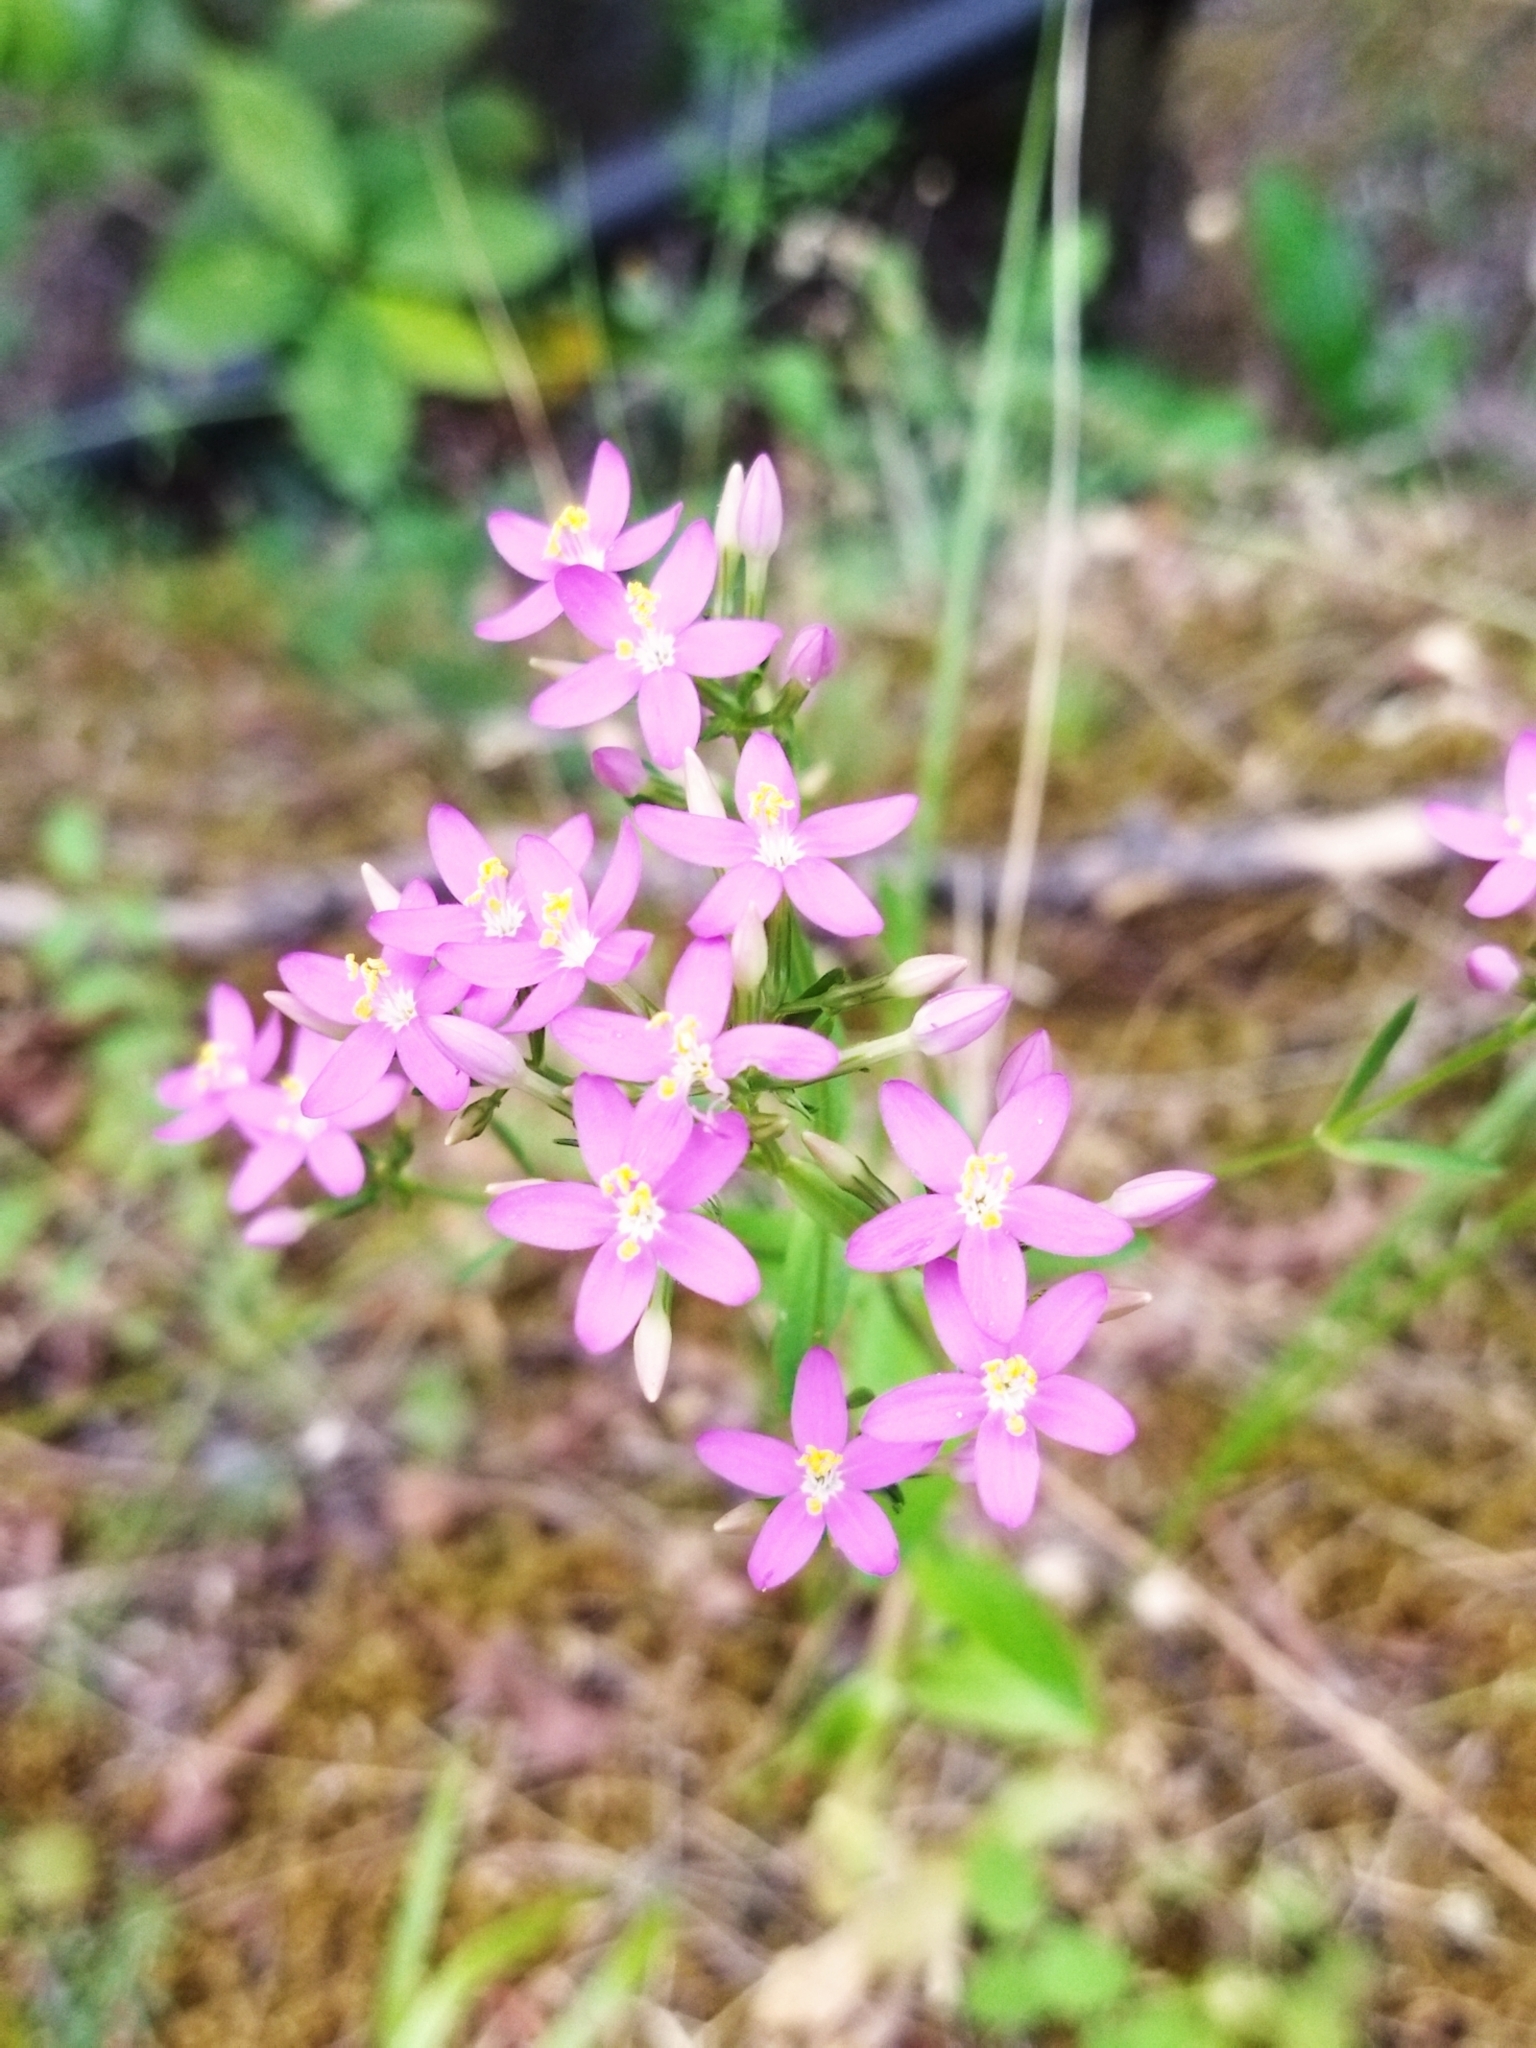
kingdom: Plantae
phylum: Tracheophyta
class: Magnoliopsida
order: Gentianales
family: Gentianaceae
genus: Centaurium
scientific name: Centaurium erythraea
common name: Common centaury
